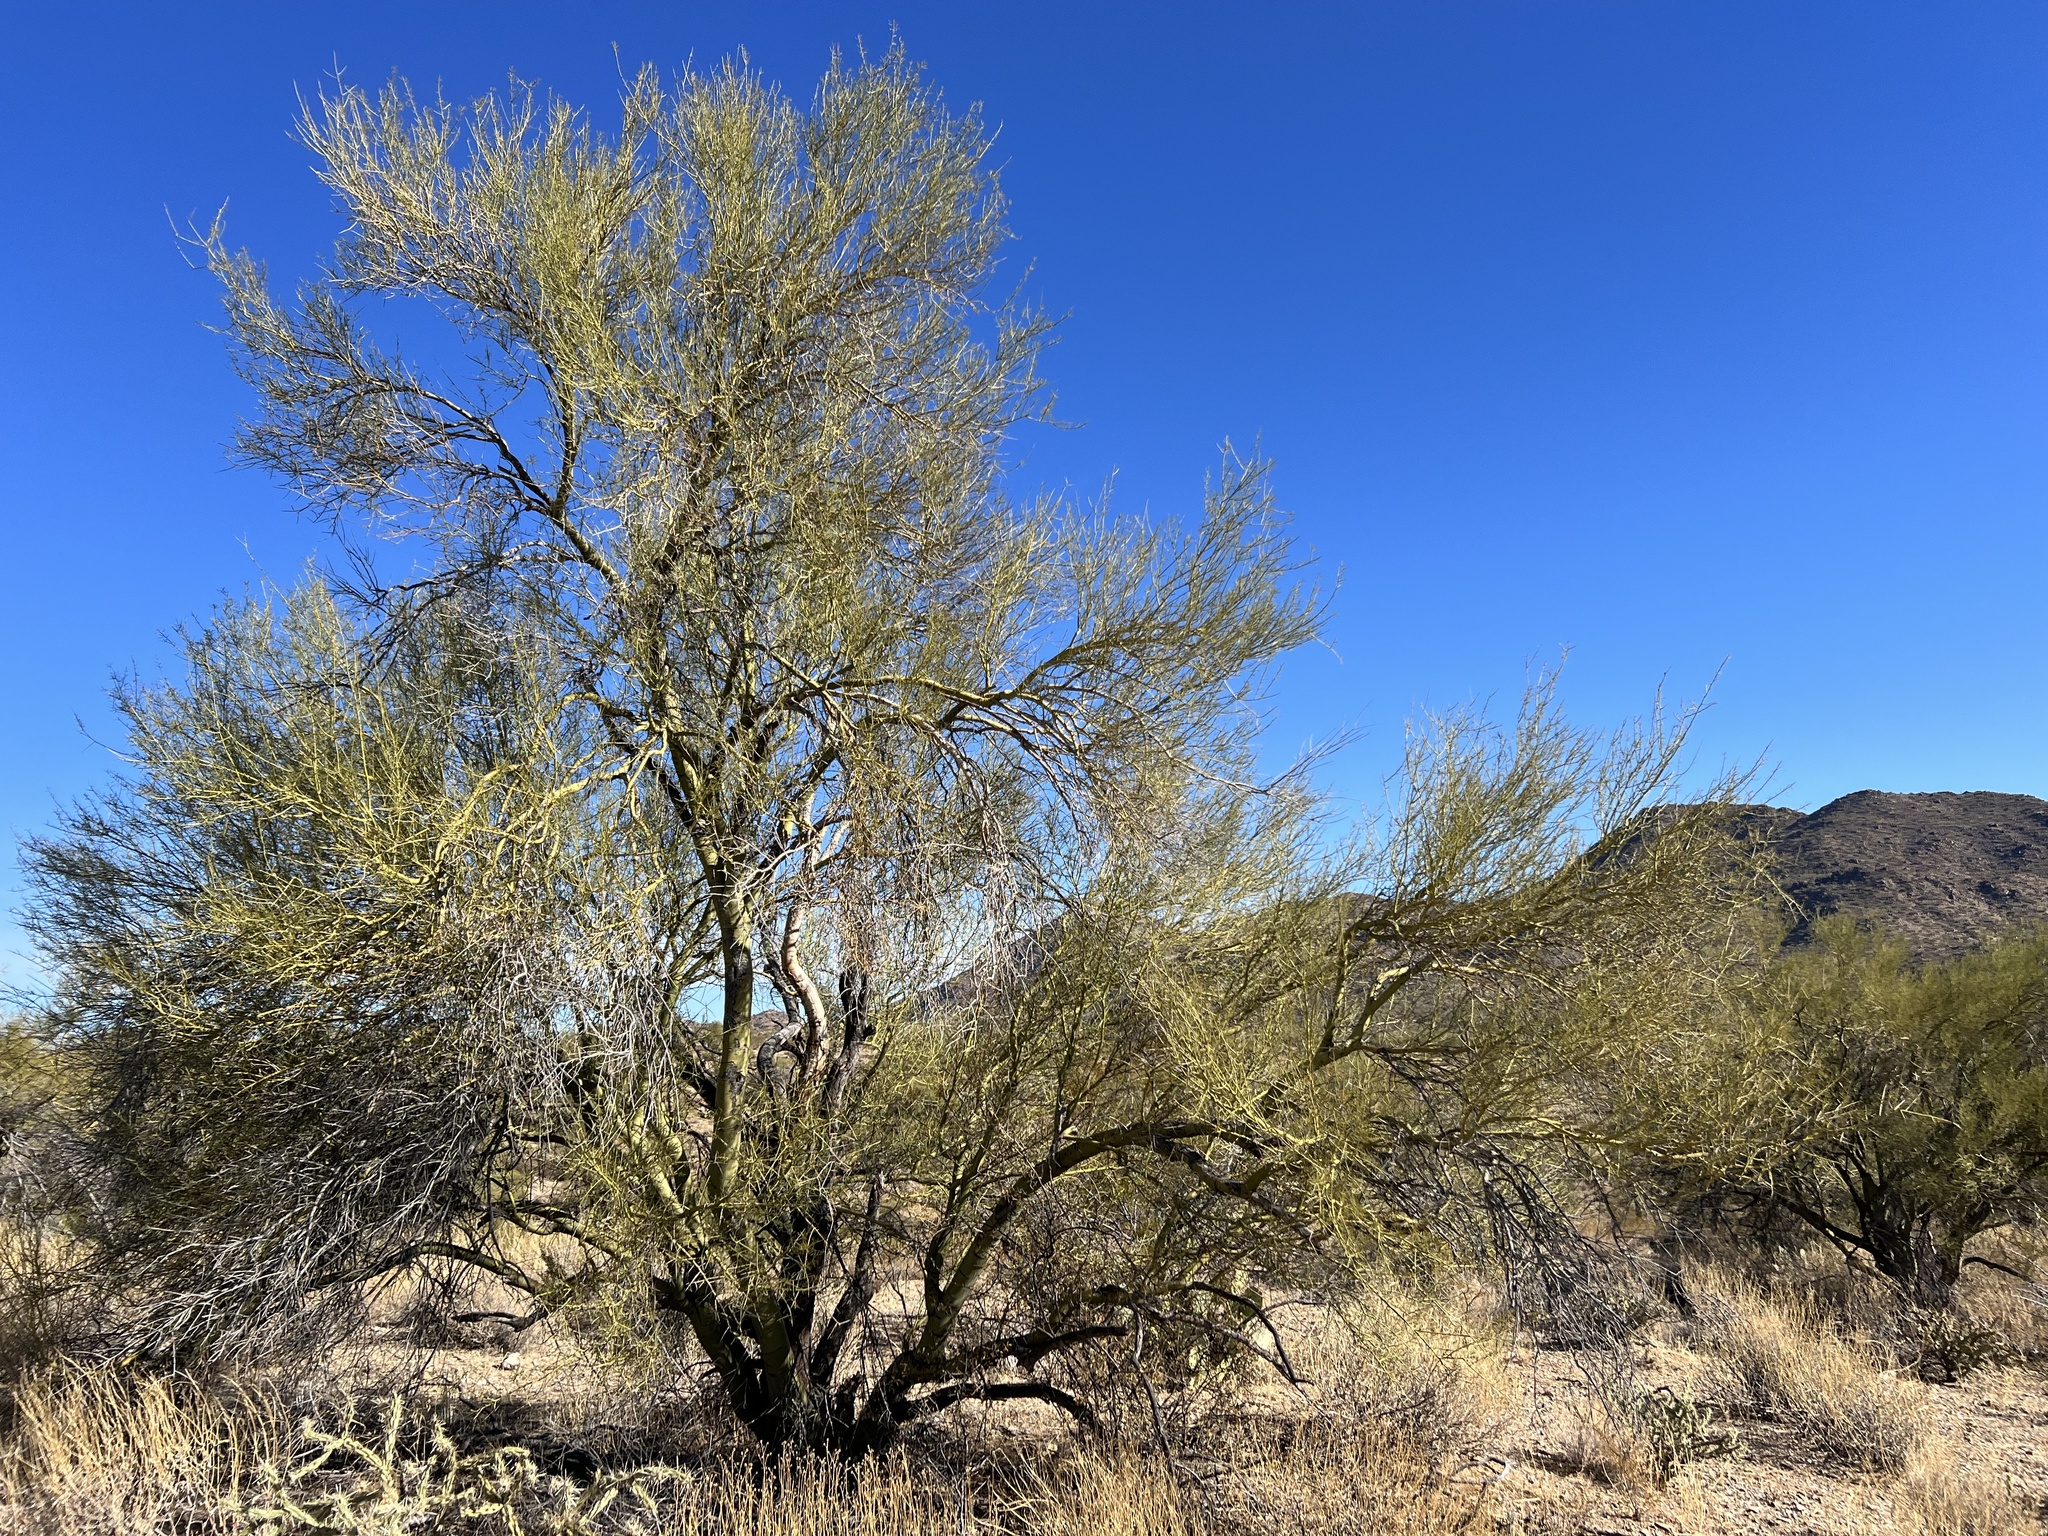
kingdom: Plantae
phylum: Tracheophyta
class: Magnoliopsida
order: Fabales
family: Fabaceae
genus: Parkinsonia
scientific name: Parkinsonia microphylla
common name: Yellow paloverde
